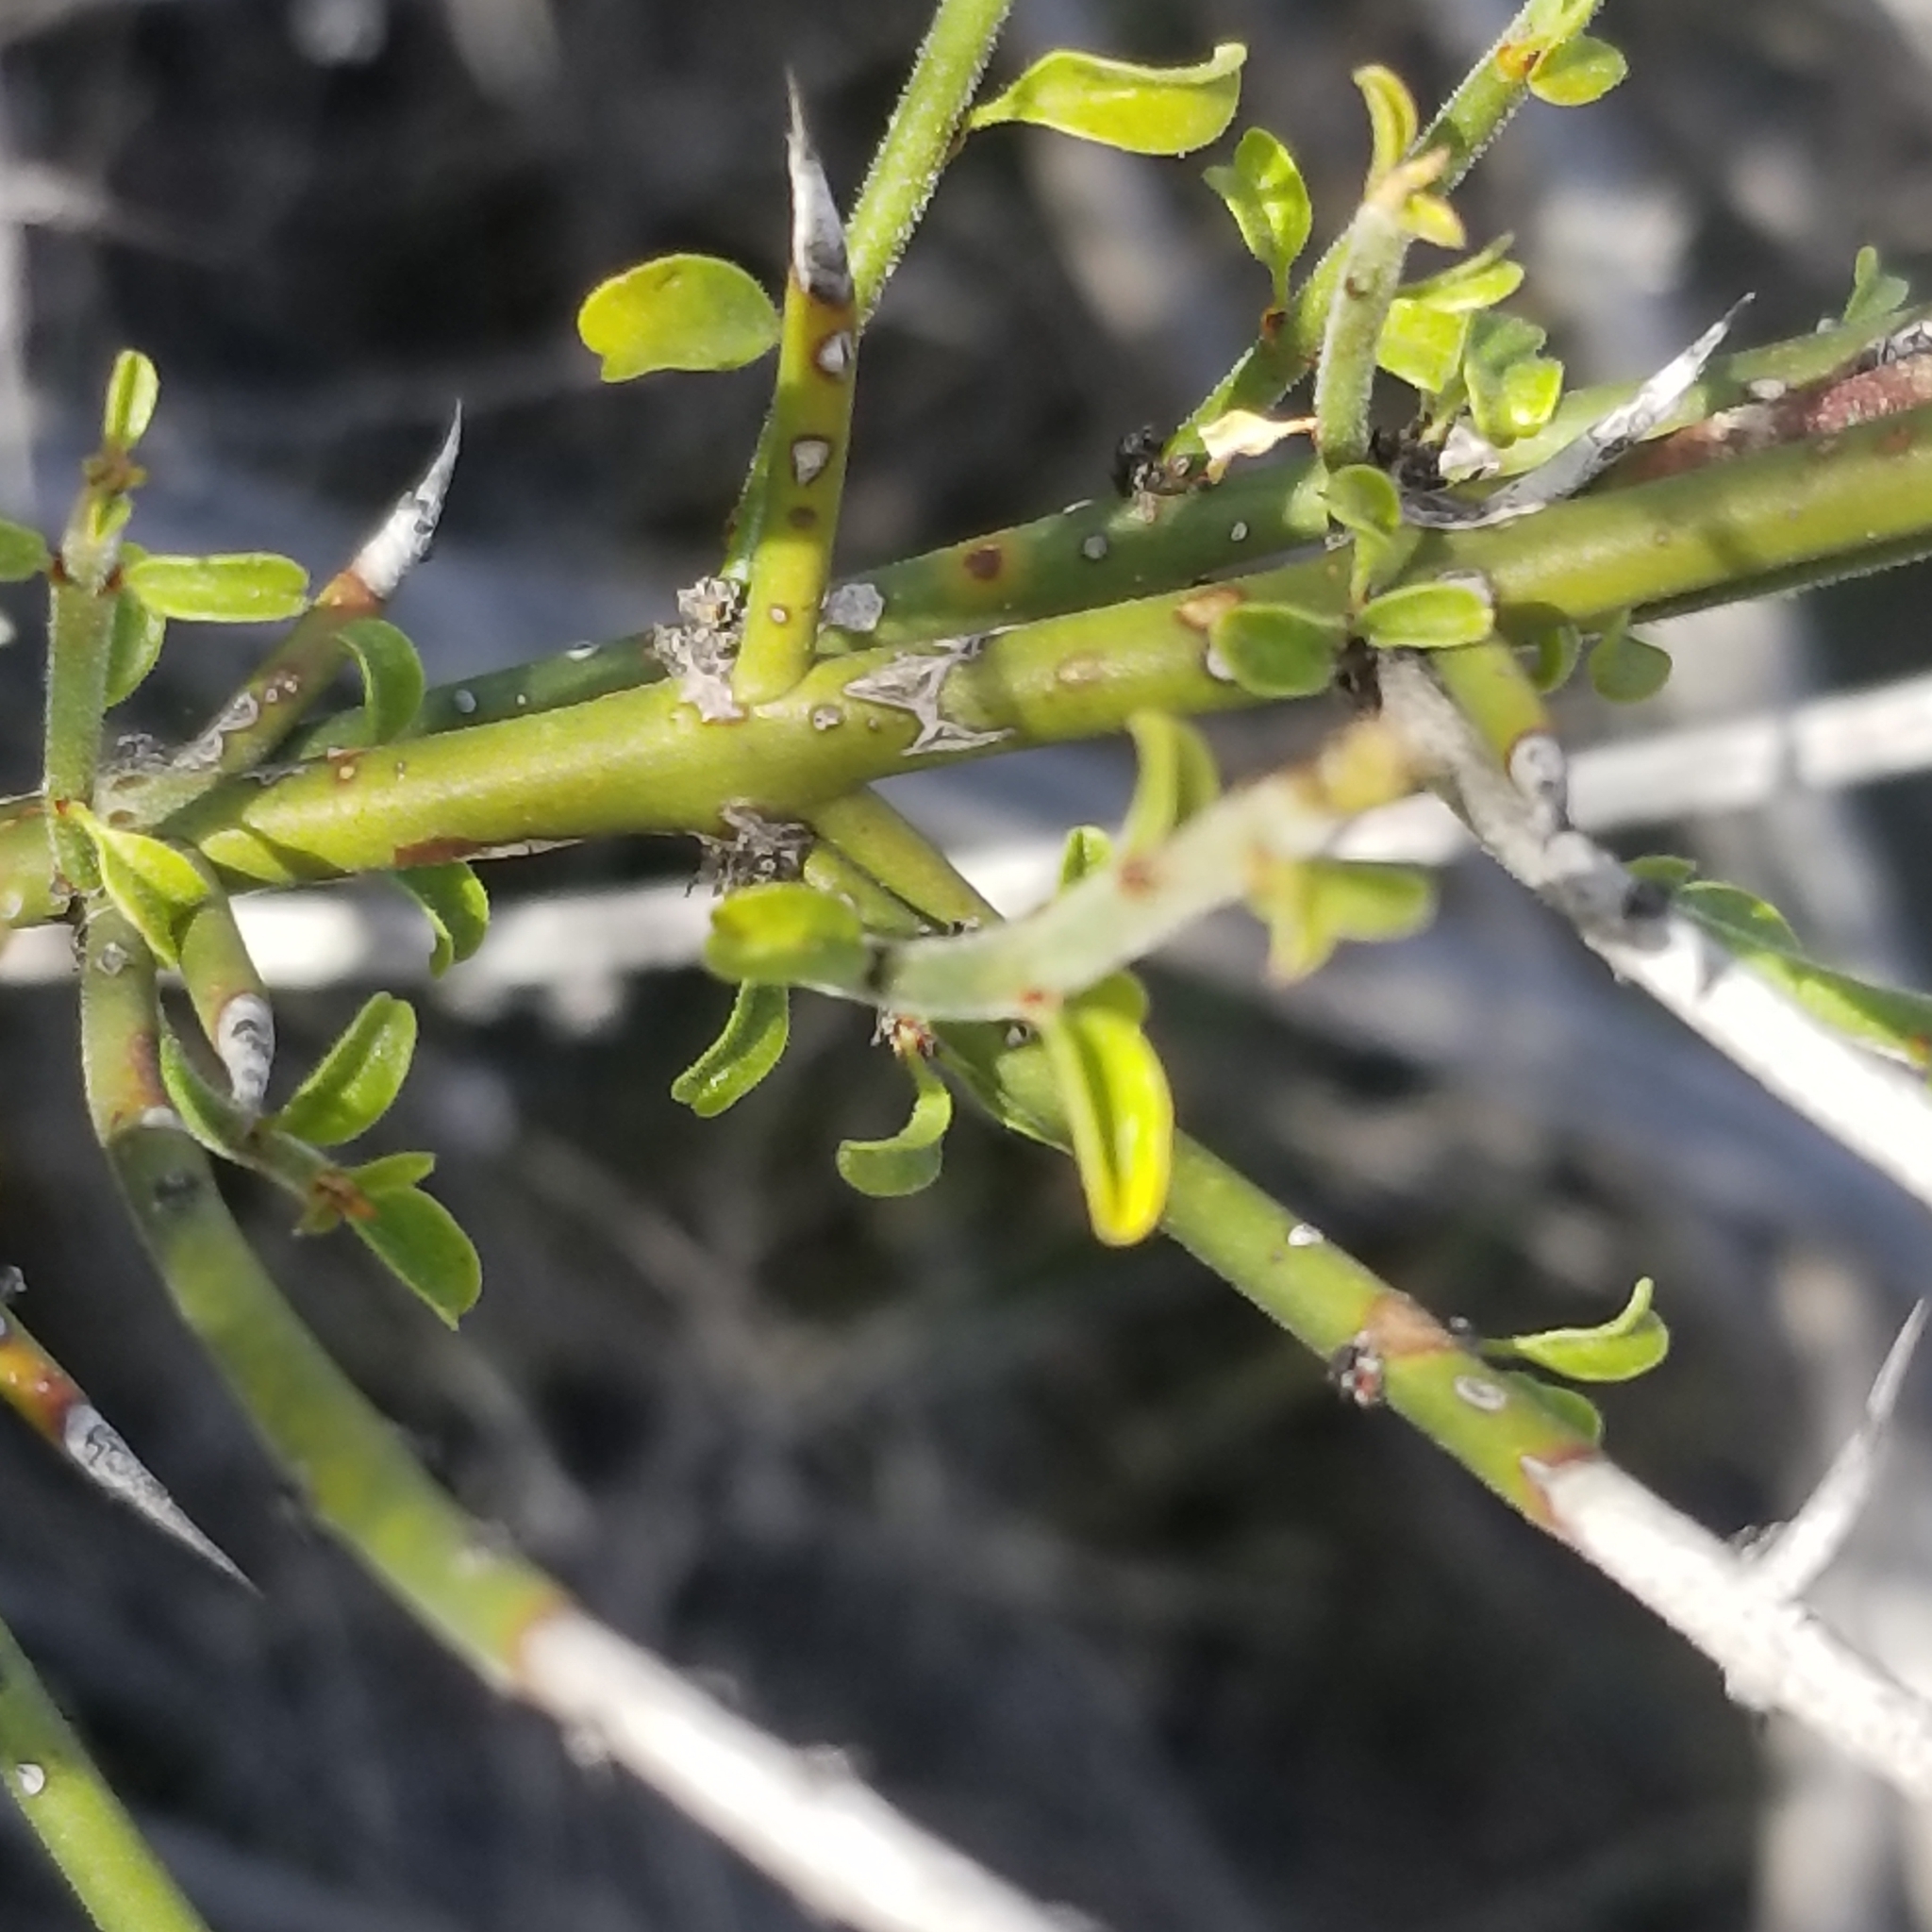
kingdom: Plantae
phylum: Tracheophyta
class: Magnoliopsida
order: Rosales
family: Rhamnaceae
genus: Adolphia
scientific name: Adolphia californica
